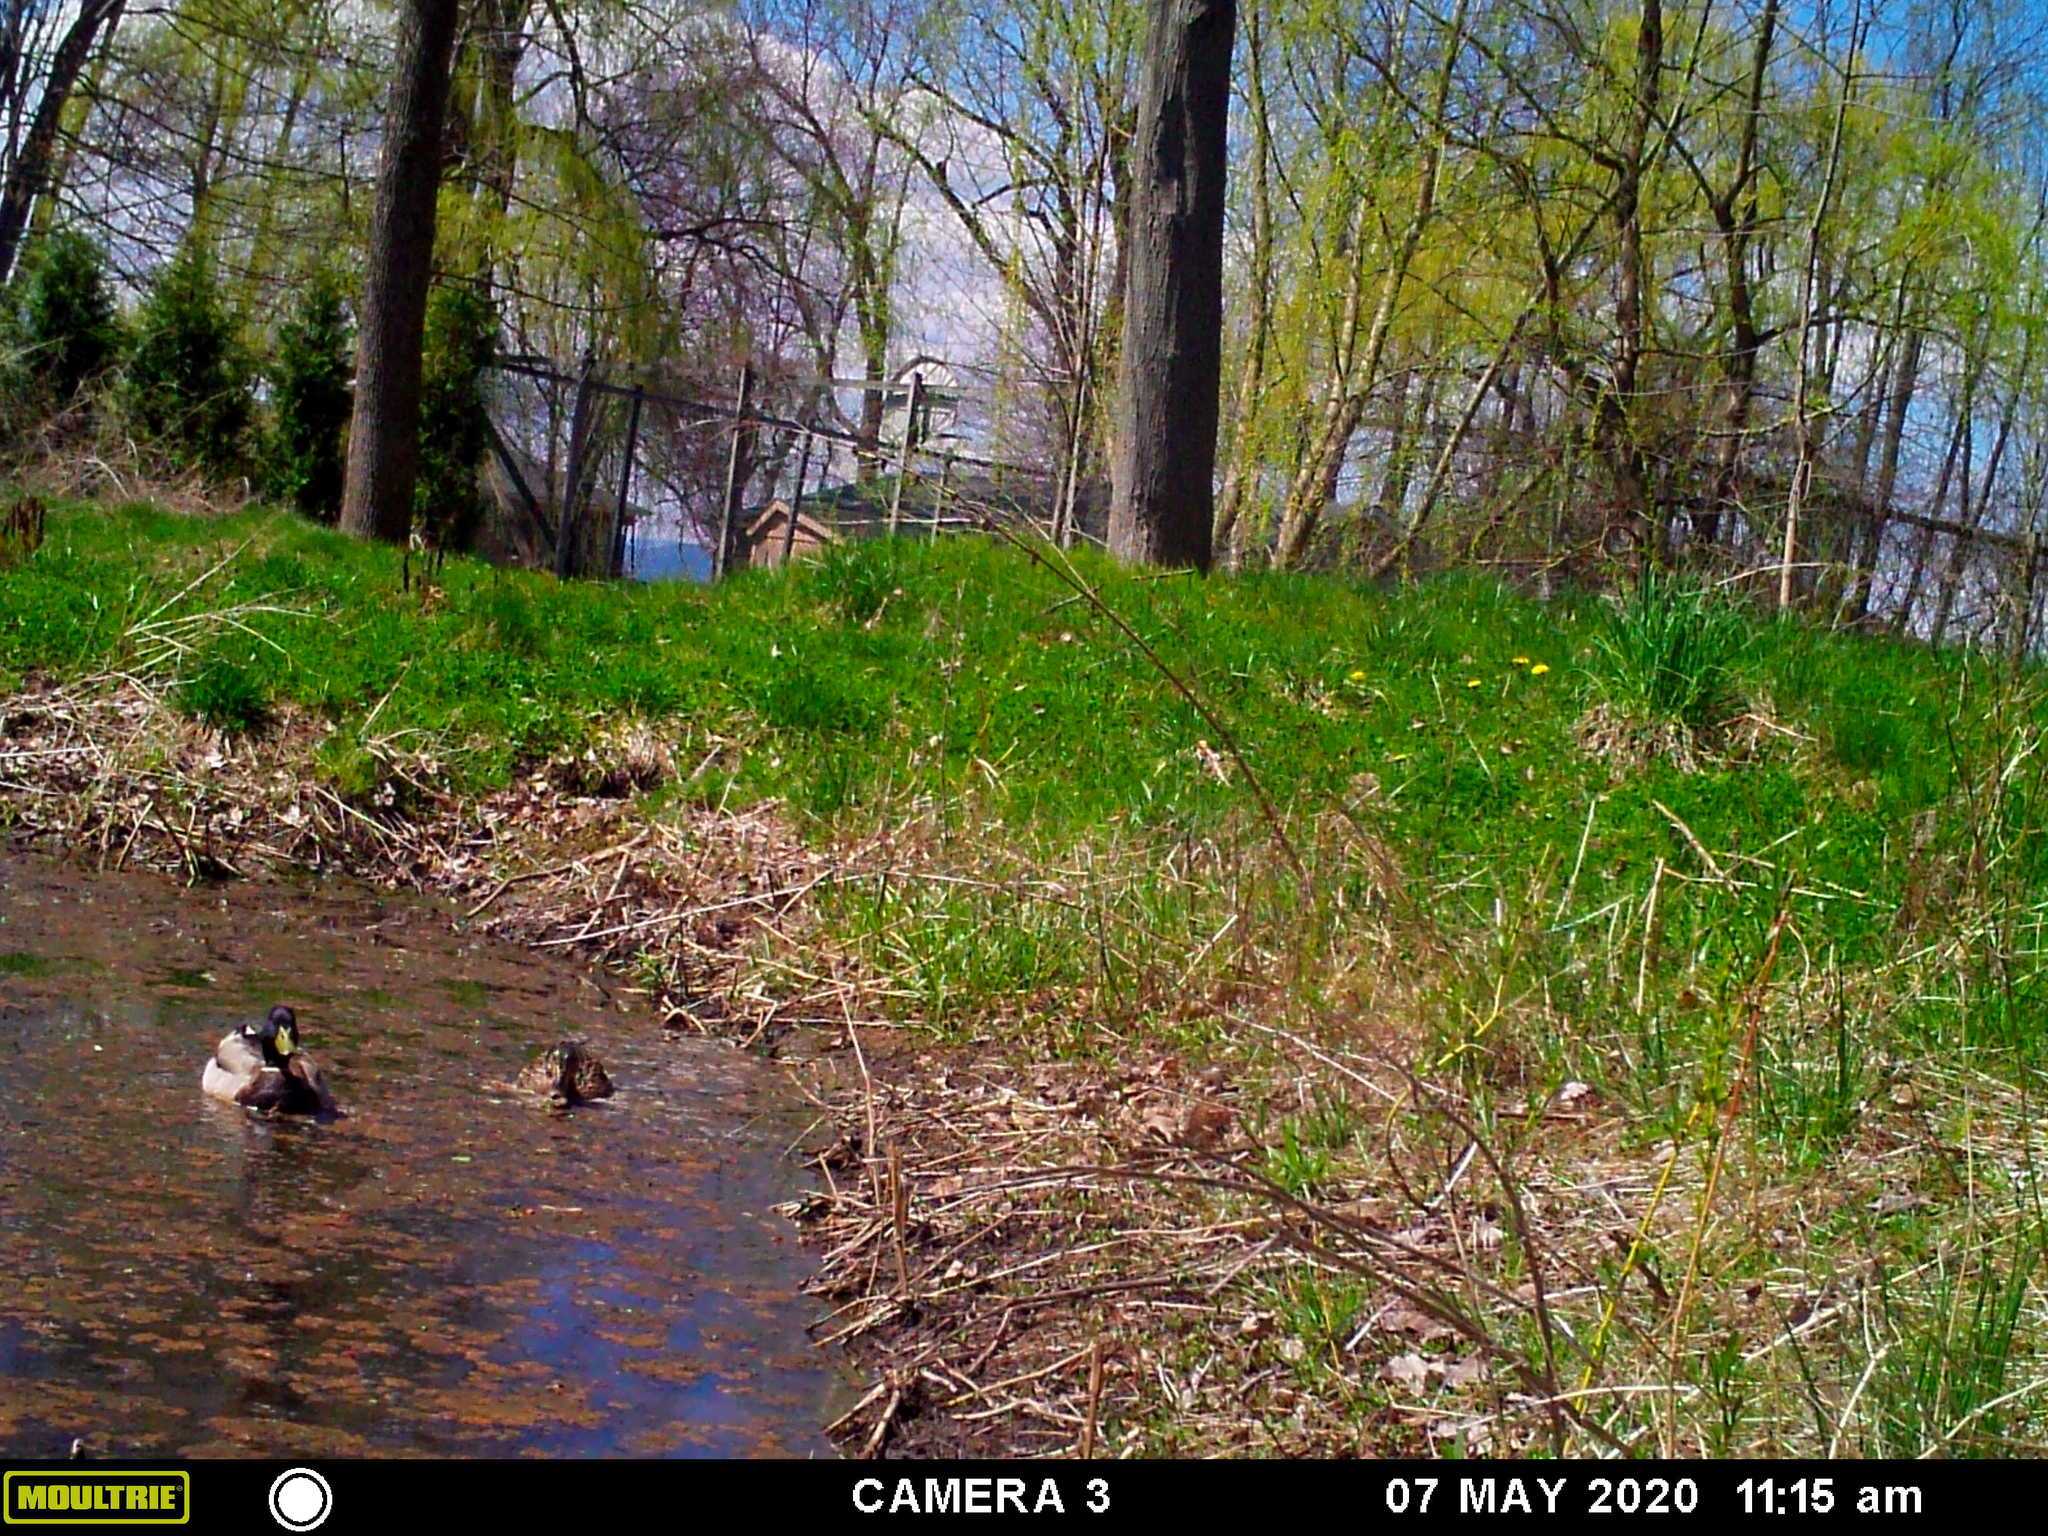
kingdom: Animalia
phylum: Chordata
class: Aves
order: Anseriformes
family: Anatidae
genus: Anas
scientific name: Anas platyrhynchos
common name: Mallard
